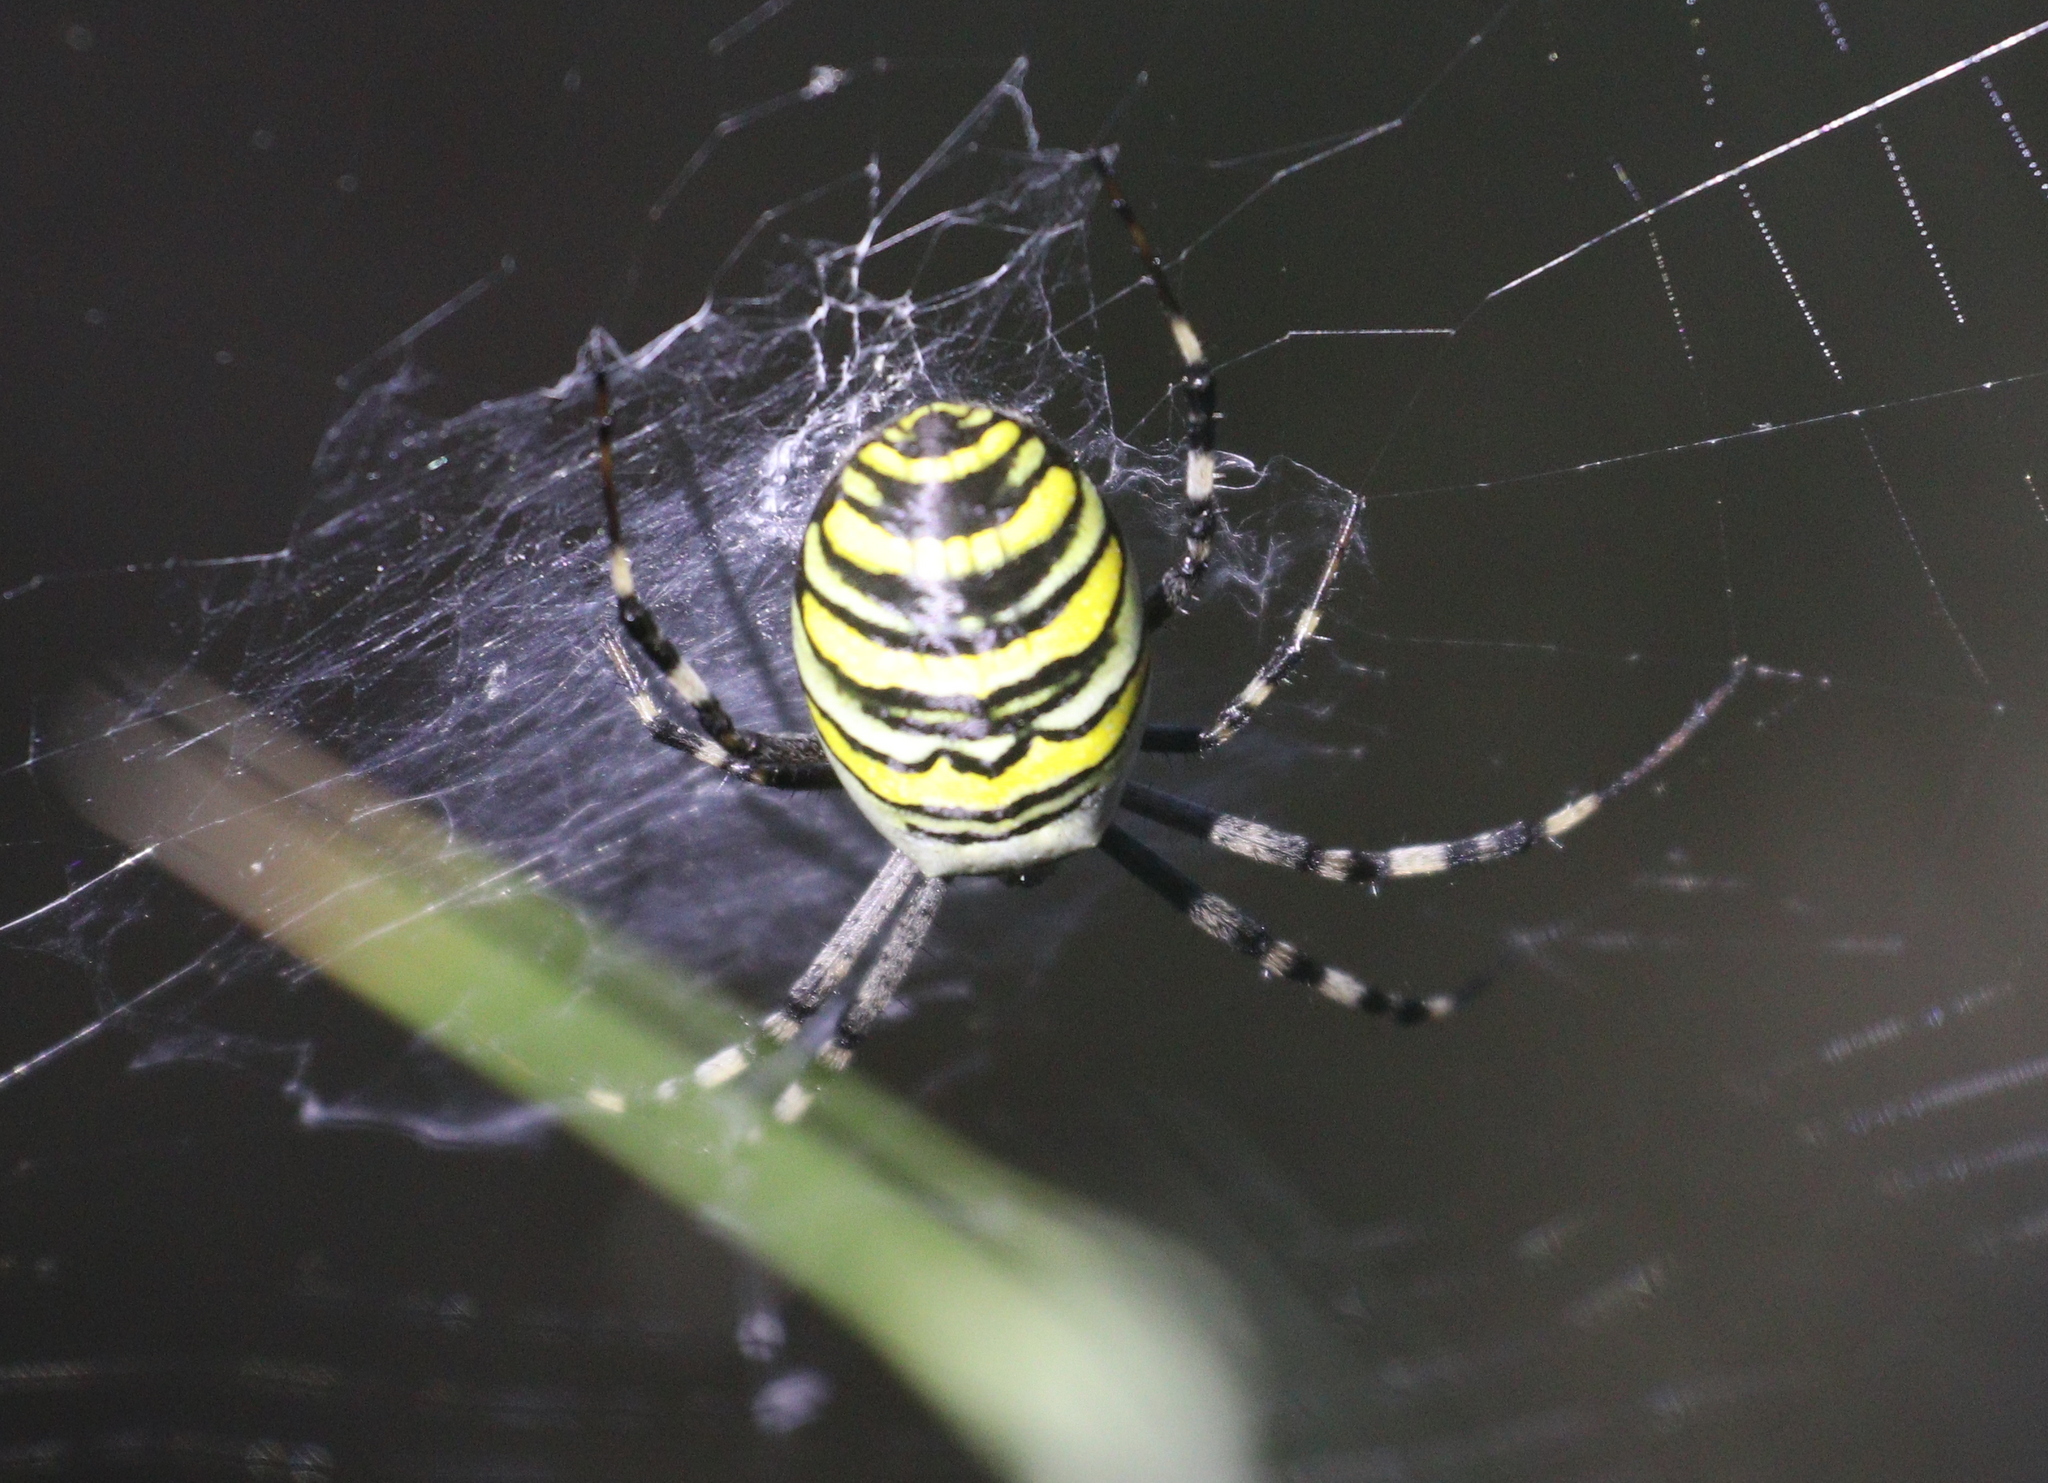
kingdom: Animalia
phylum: Arthropoda
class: Arachnida
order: Araneae
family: Araneidae
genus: Argiope
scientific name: Argiope bruennichi
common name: Wasp spider
